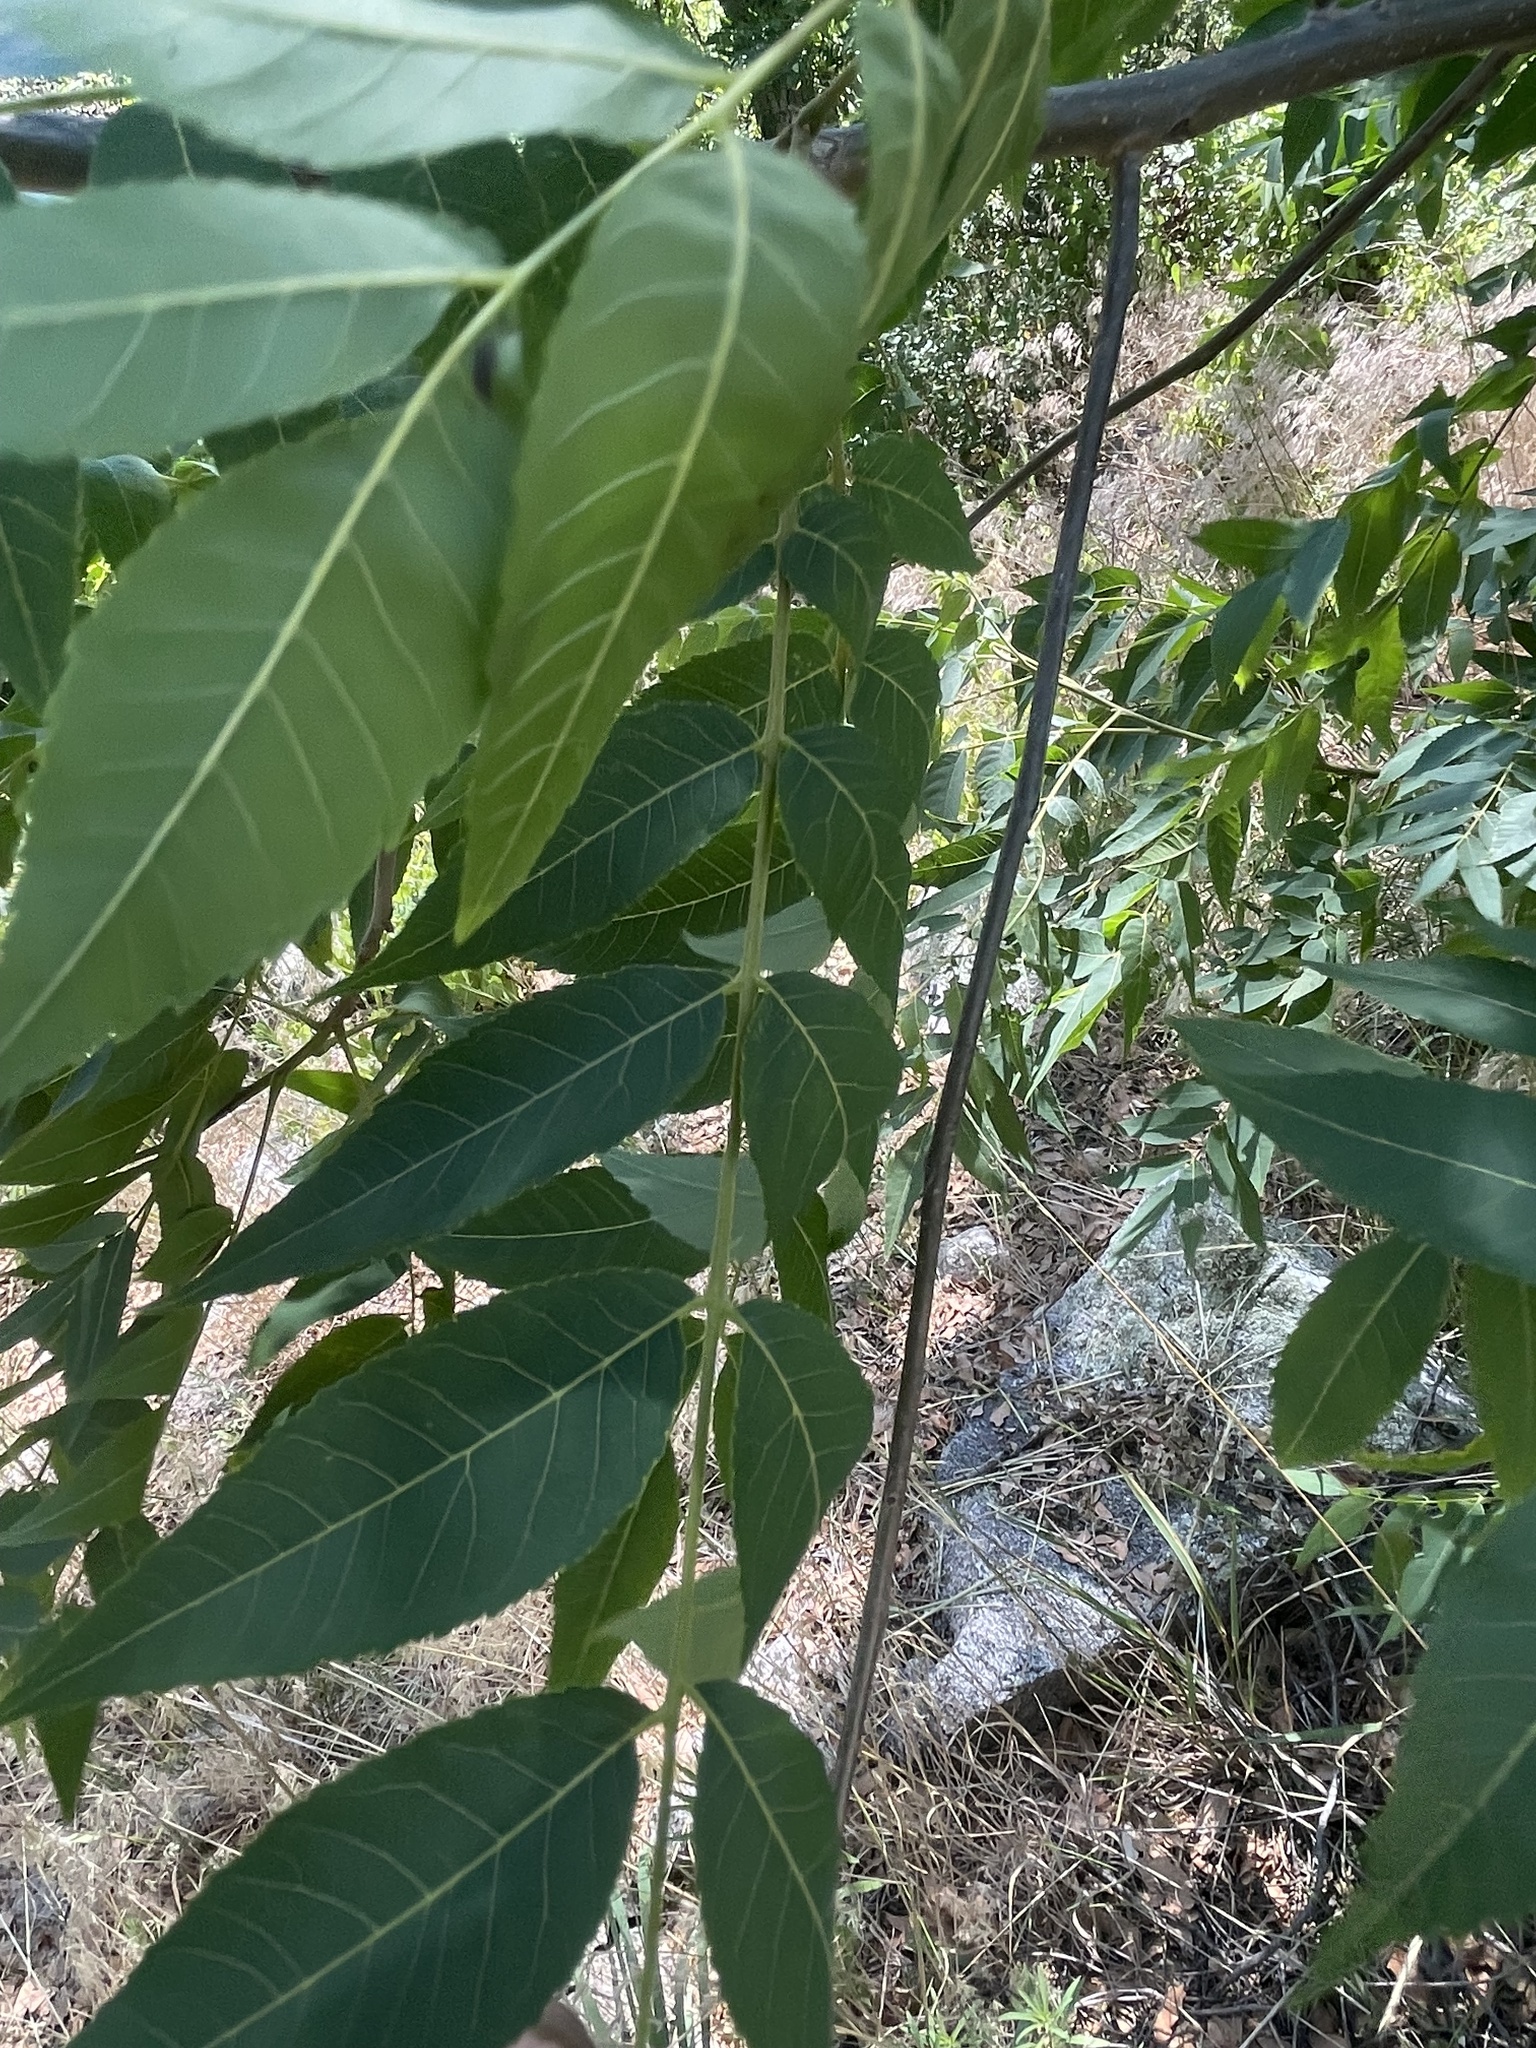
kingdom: Plantae
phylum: Tracheophyta
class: Magnoliopsida
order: Fagales
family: Juglandaceae
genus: Juglans
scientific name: Juglans major
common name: Arizona walnut
